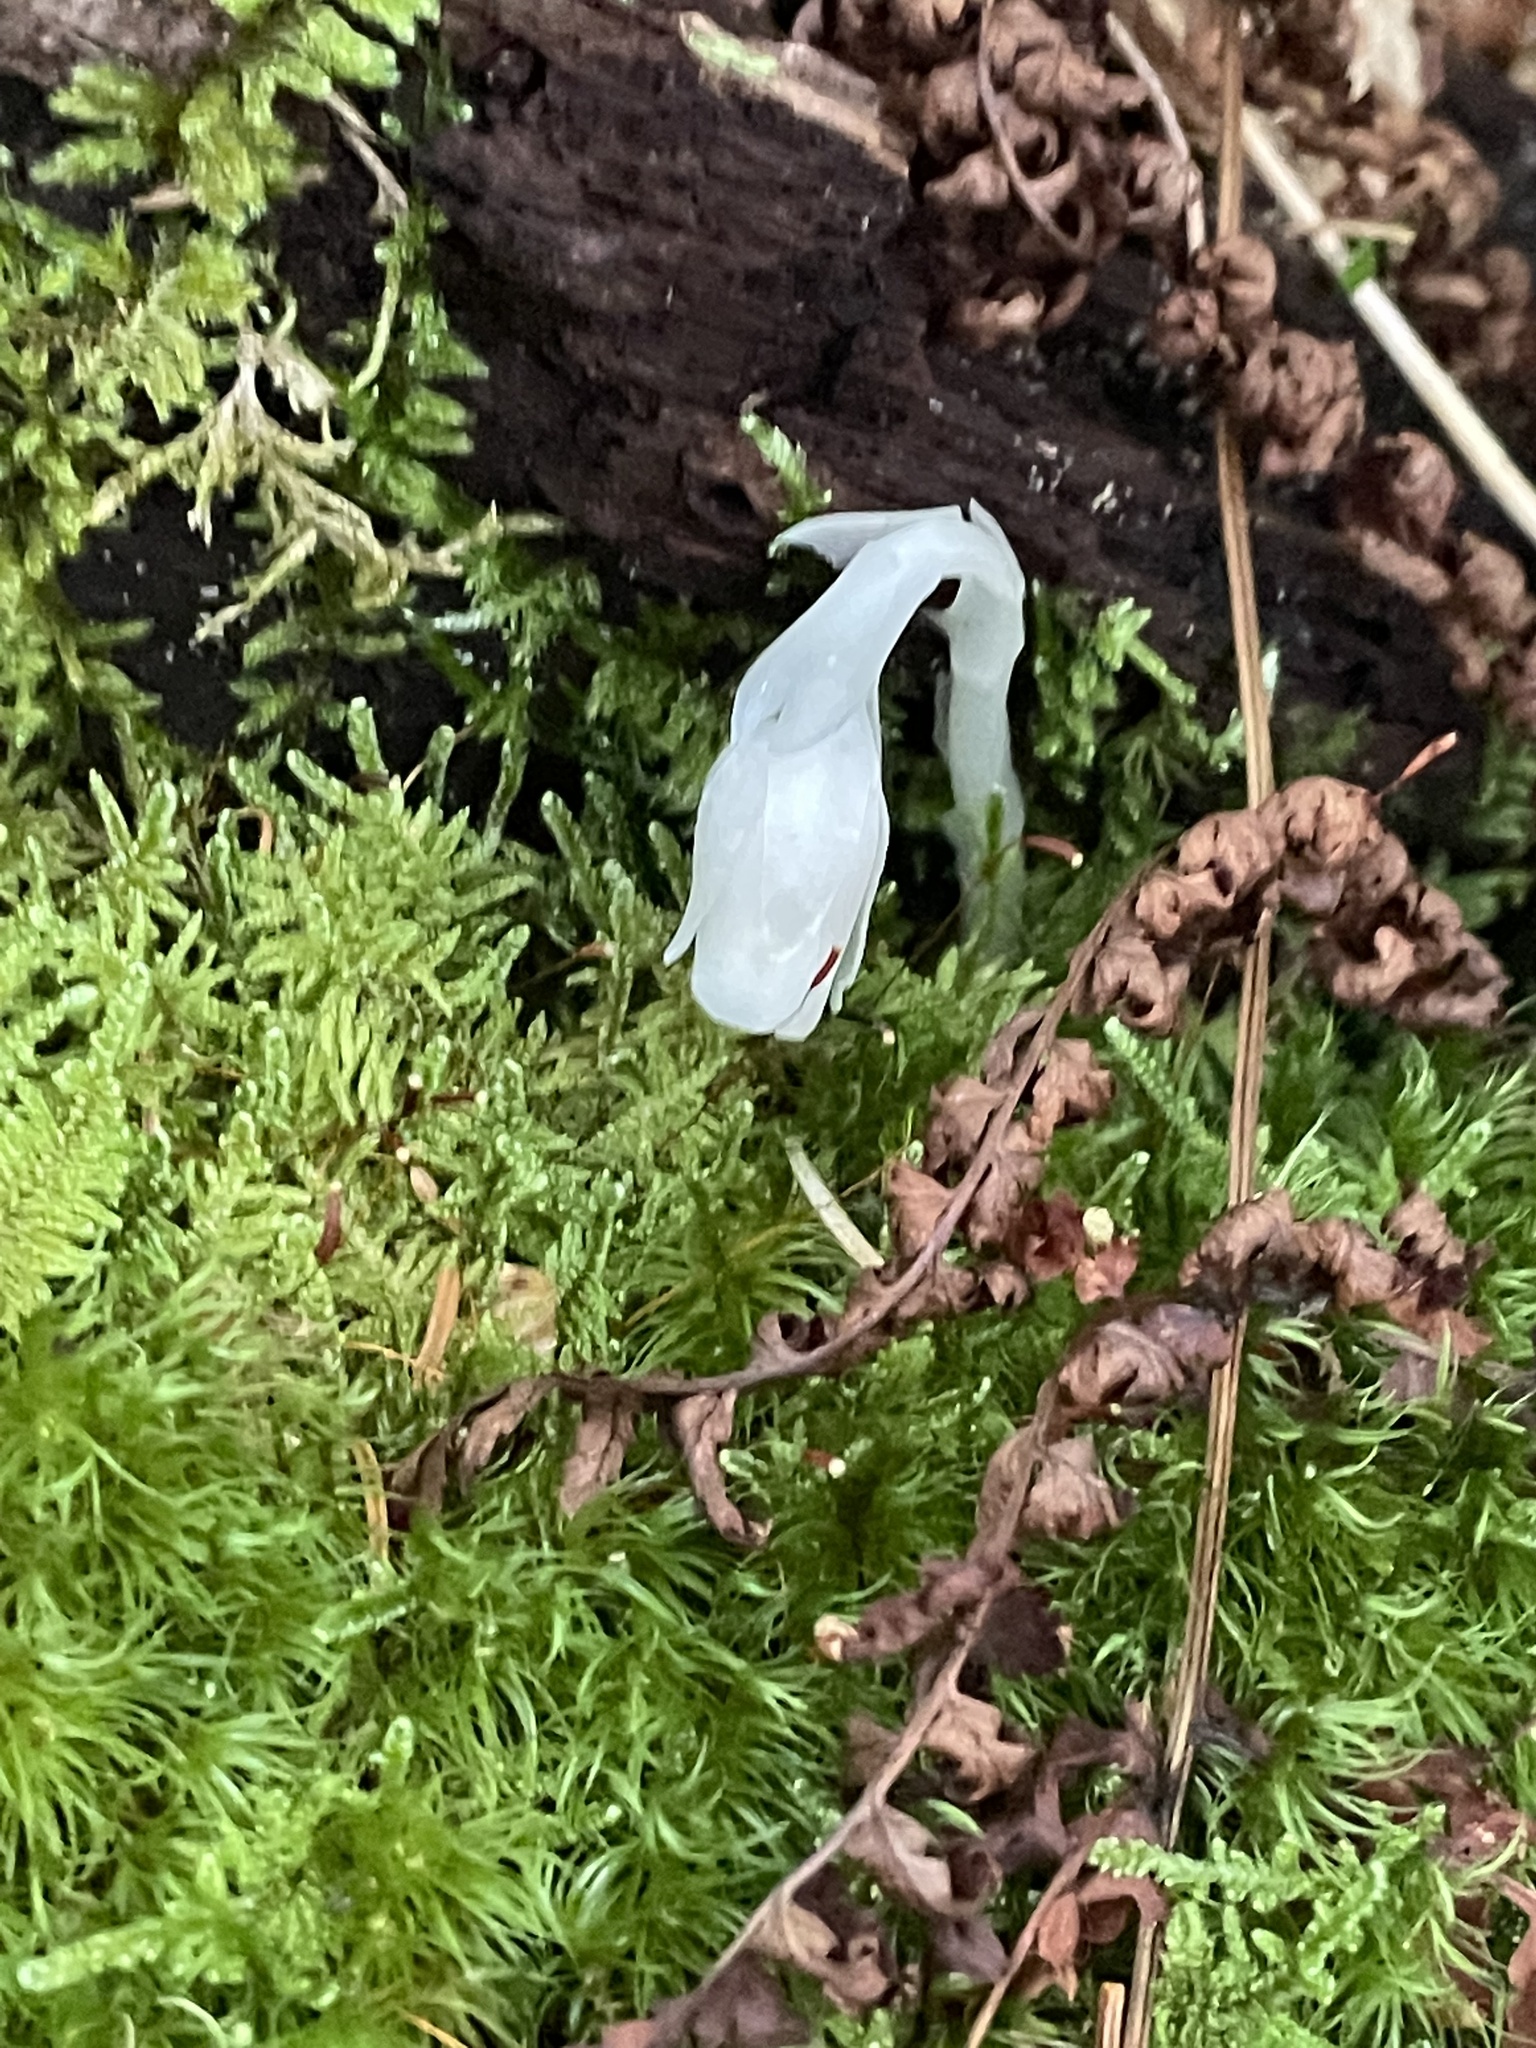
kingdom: Plantae
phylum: Tracheophyta
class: Magnoliopsida
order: Ericales
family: Ericaceae
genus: Monotropa
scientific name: Monotropa uniflora
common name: Convulsion root
